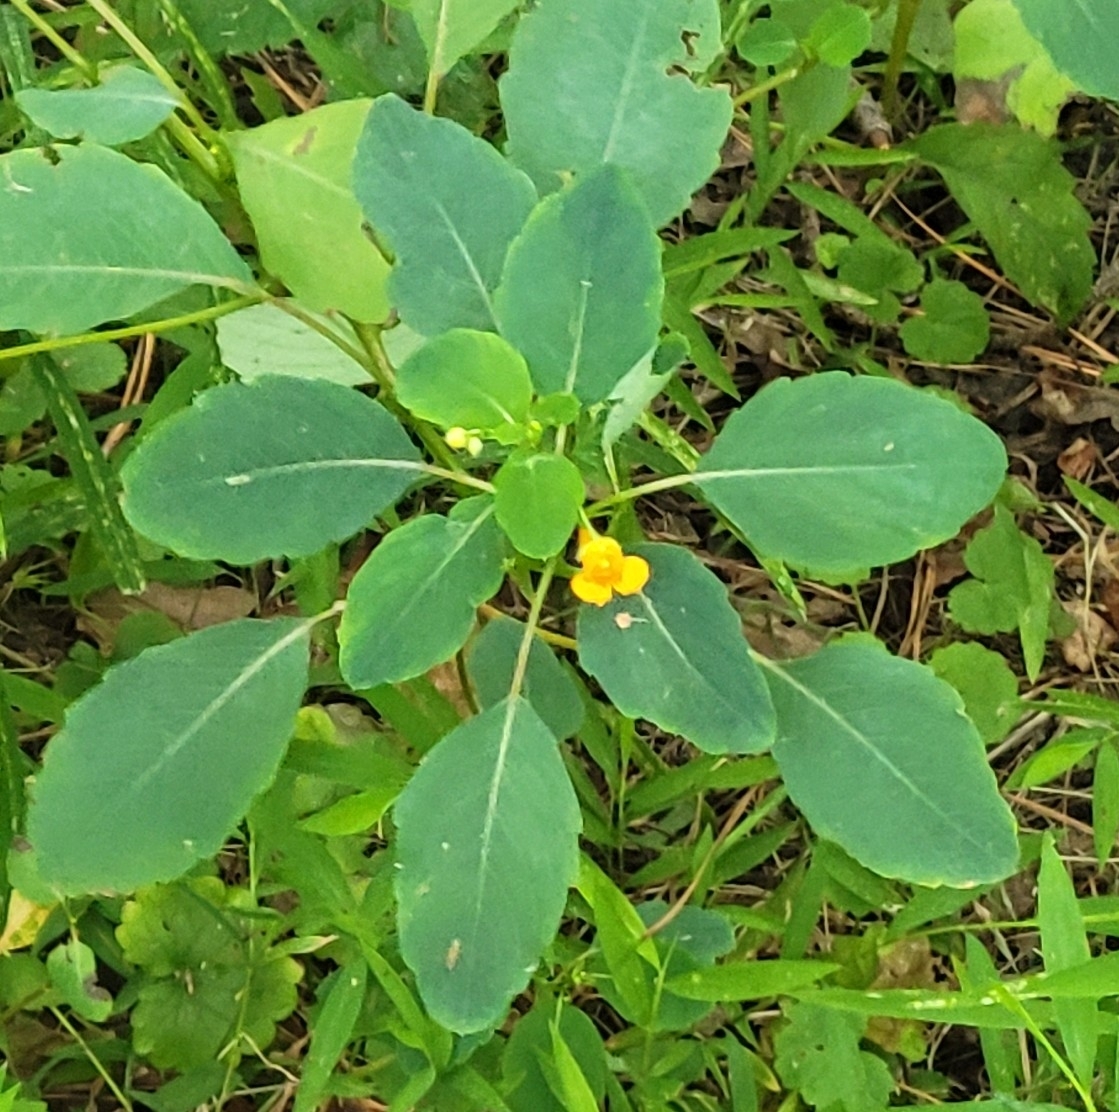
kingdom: Plantae
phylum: Tracheophyta
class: Magnoliopsida
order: Ericales
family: Balsaminaceae
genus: Impatiens
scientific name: Impatiens capensis
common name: Orange balsam
